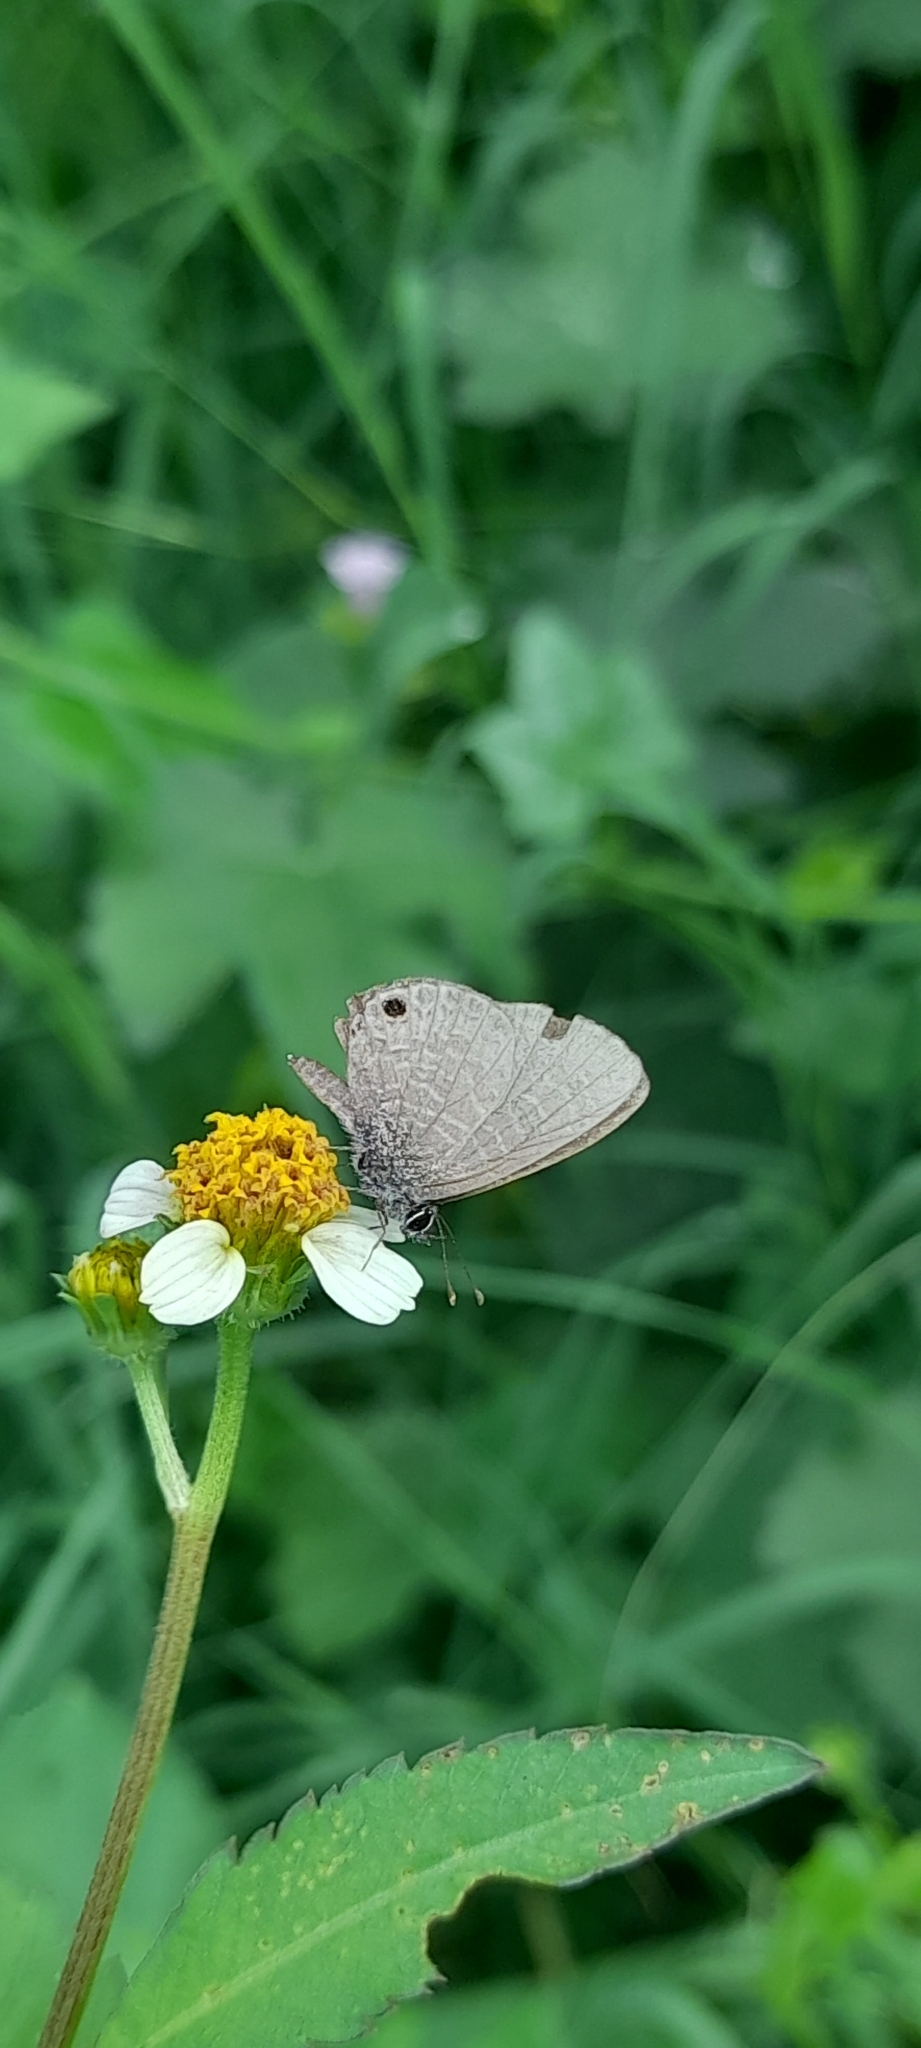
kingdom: Animalia
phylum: Arthropoda
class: Insecta
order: Lepidoptera
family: Lycaenidae
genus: Prosotas
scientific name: Prosotas dubiosa
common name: Tailless lineblue
